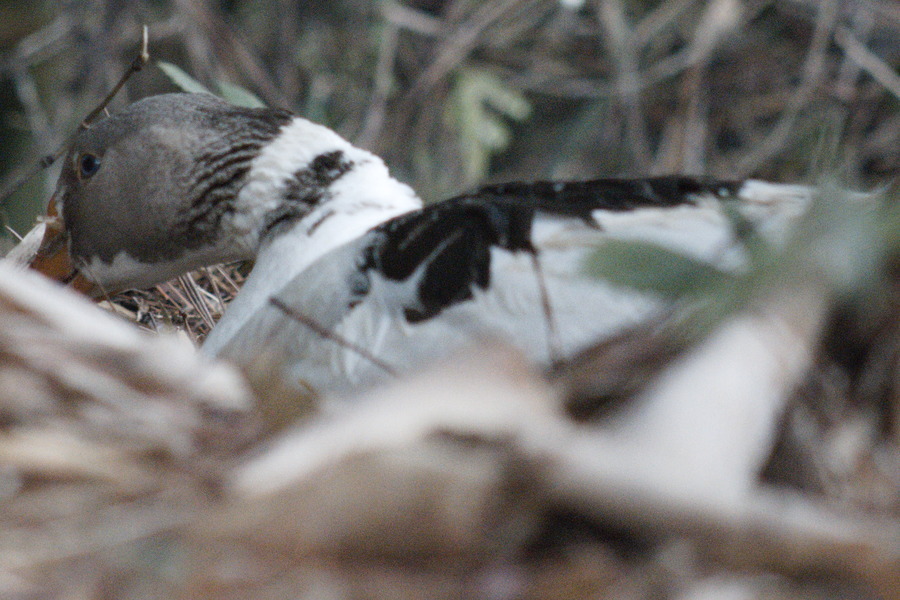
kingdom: Animalia
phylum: Chordata
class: Aves
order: Anseriformes
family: Anatidae
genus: Anser
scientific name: Anser anser
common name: Greylag goose
